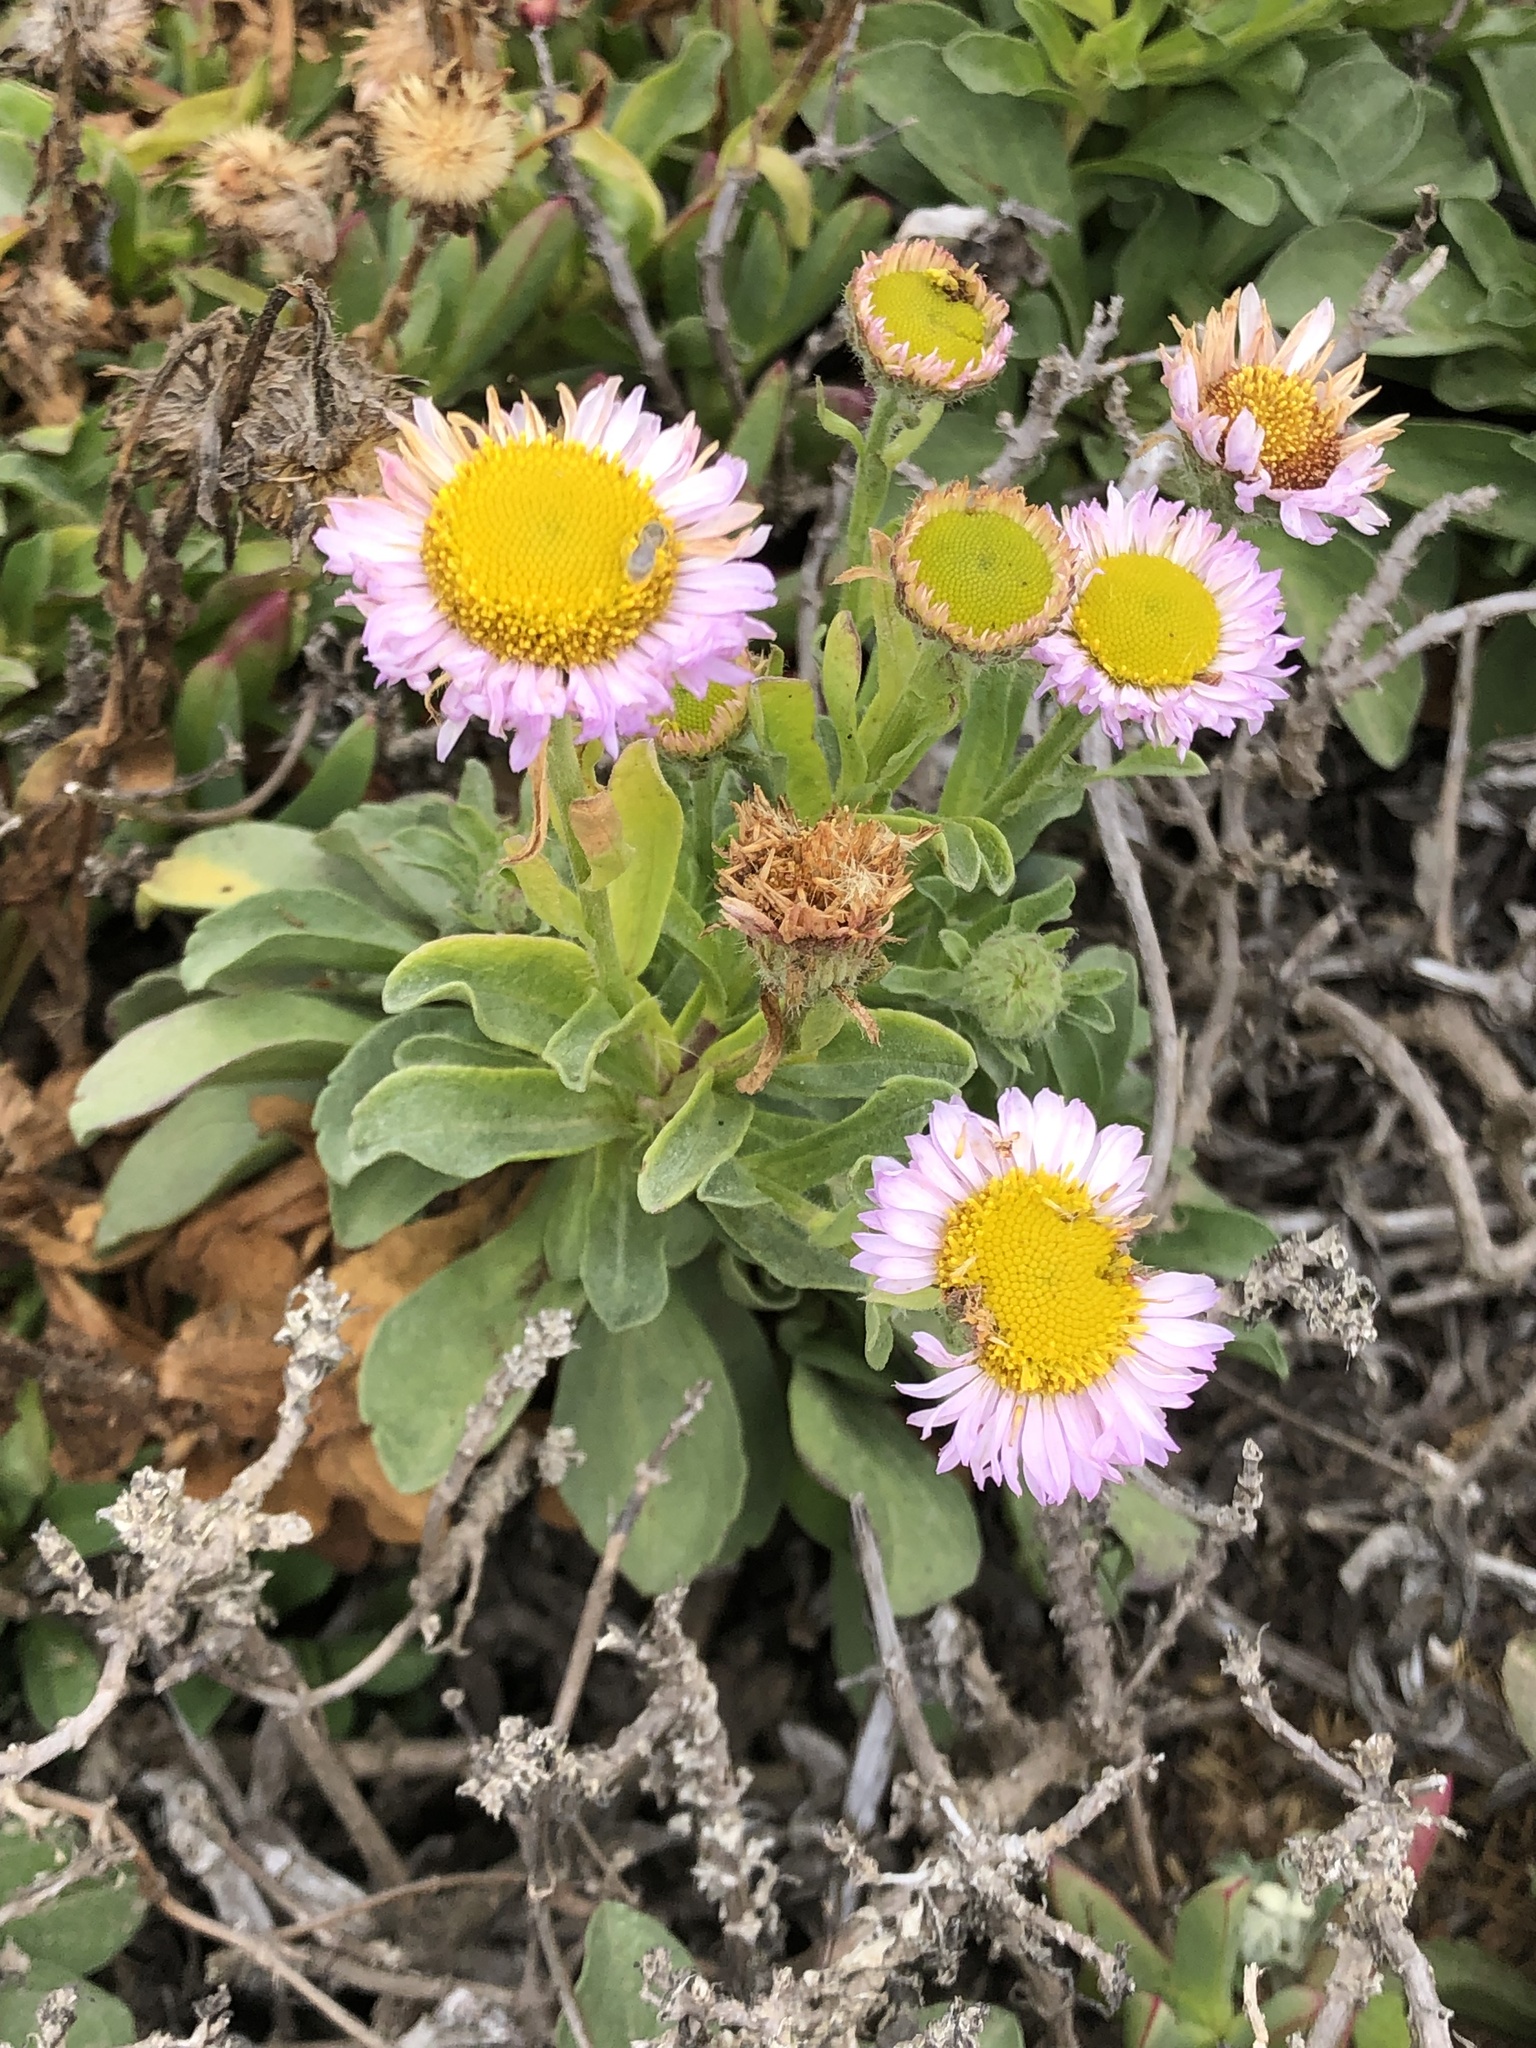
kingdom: Plantae
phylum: Tracheophyta
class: Magnoliopsida
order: Asterales
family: Asteraceae
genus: Erigeron
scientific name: Erigeron glaucus
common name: Seaside daisy
